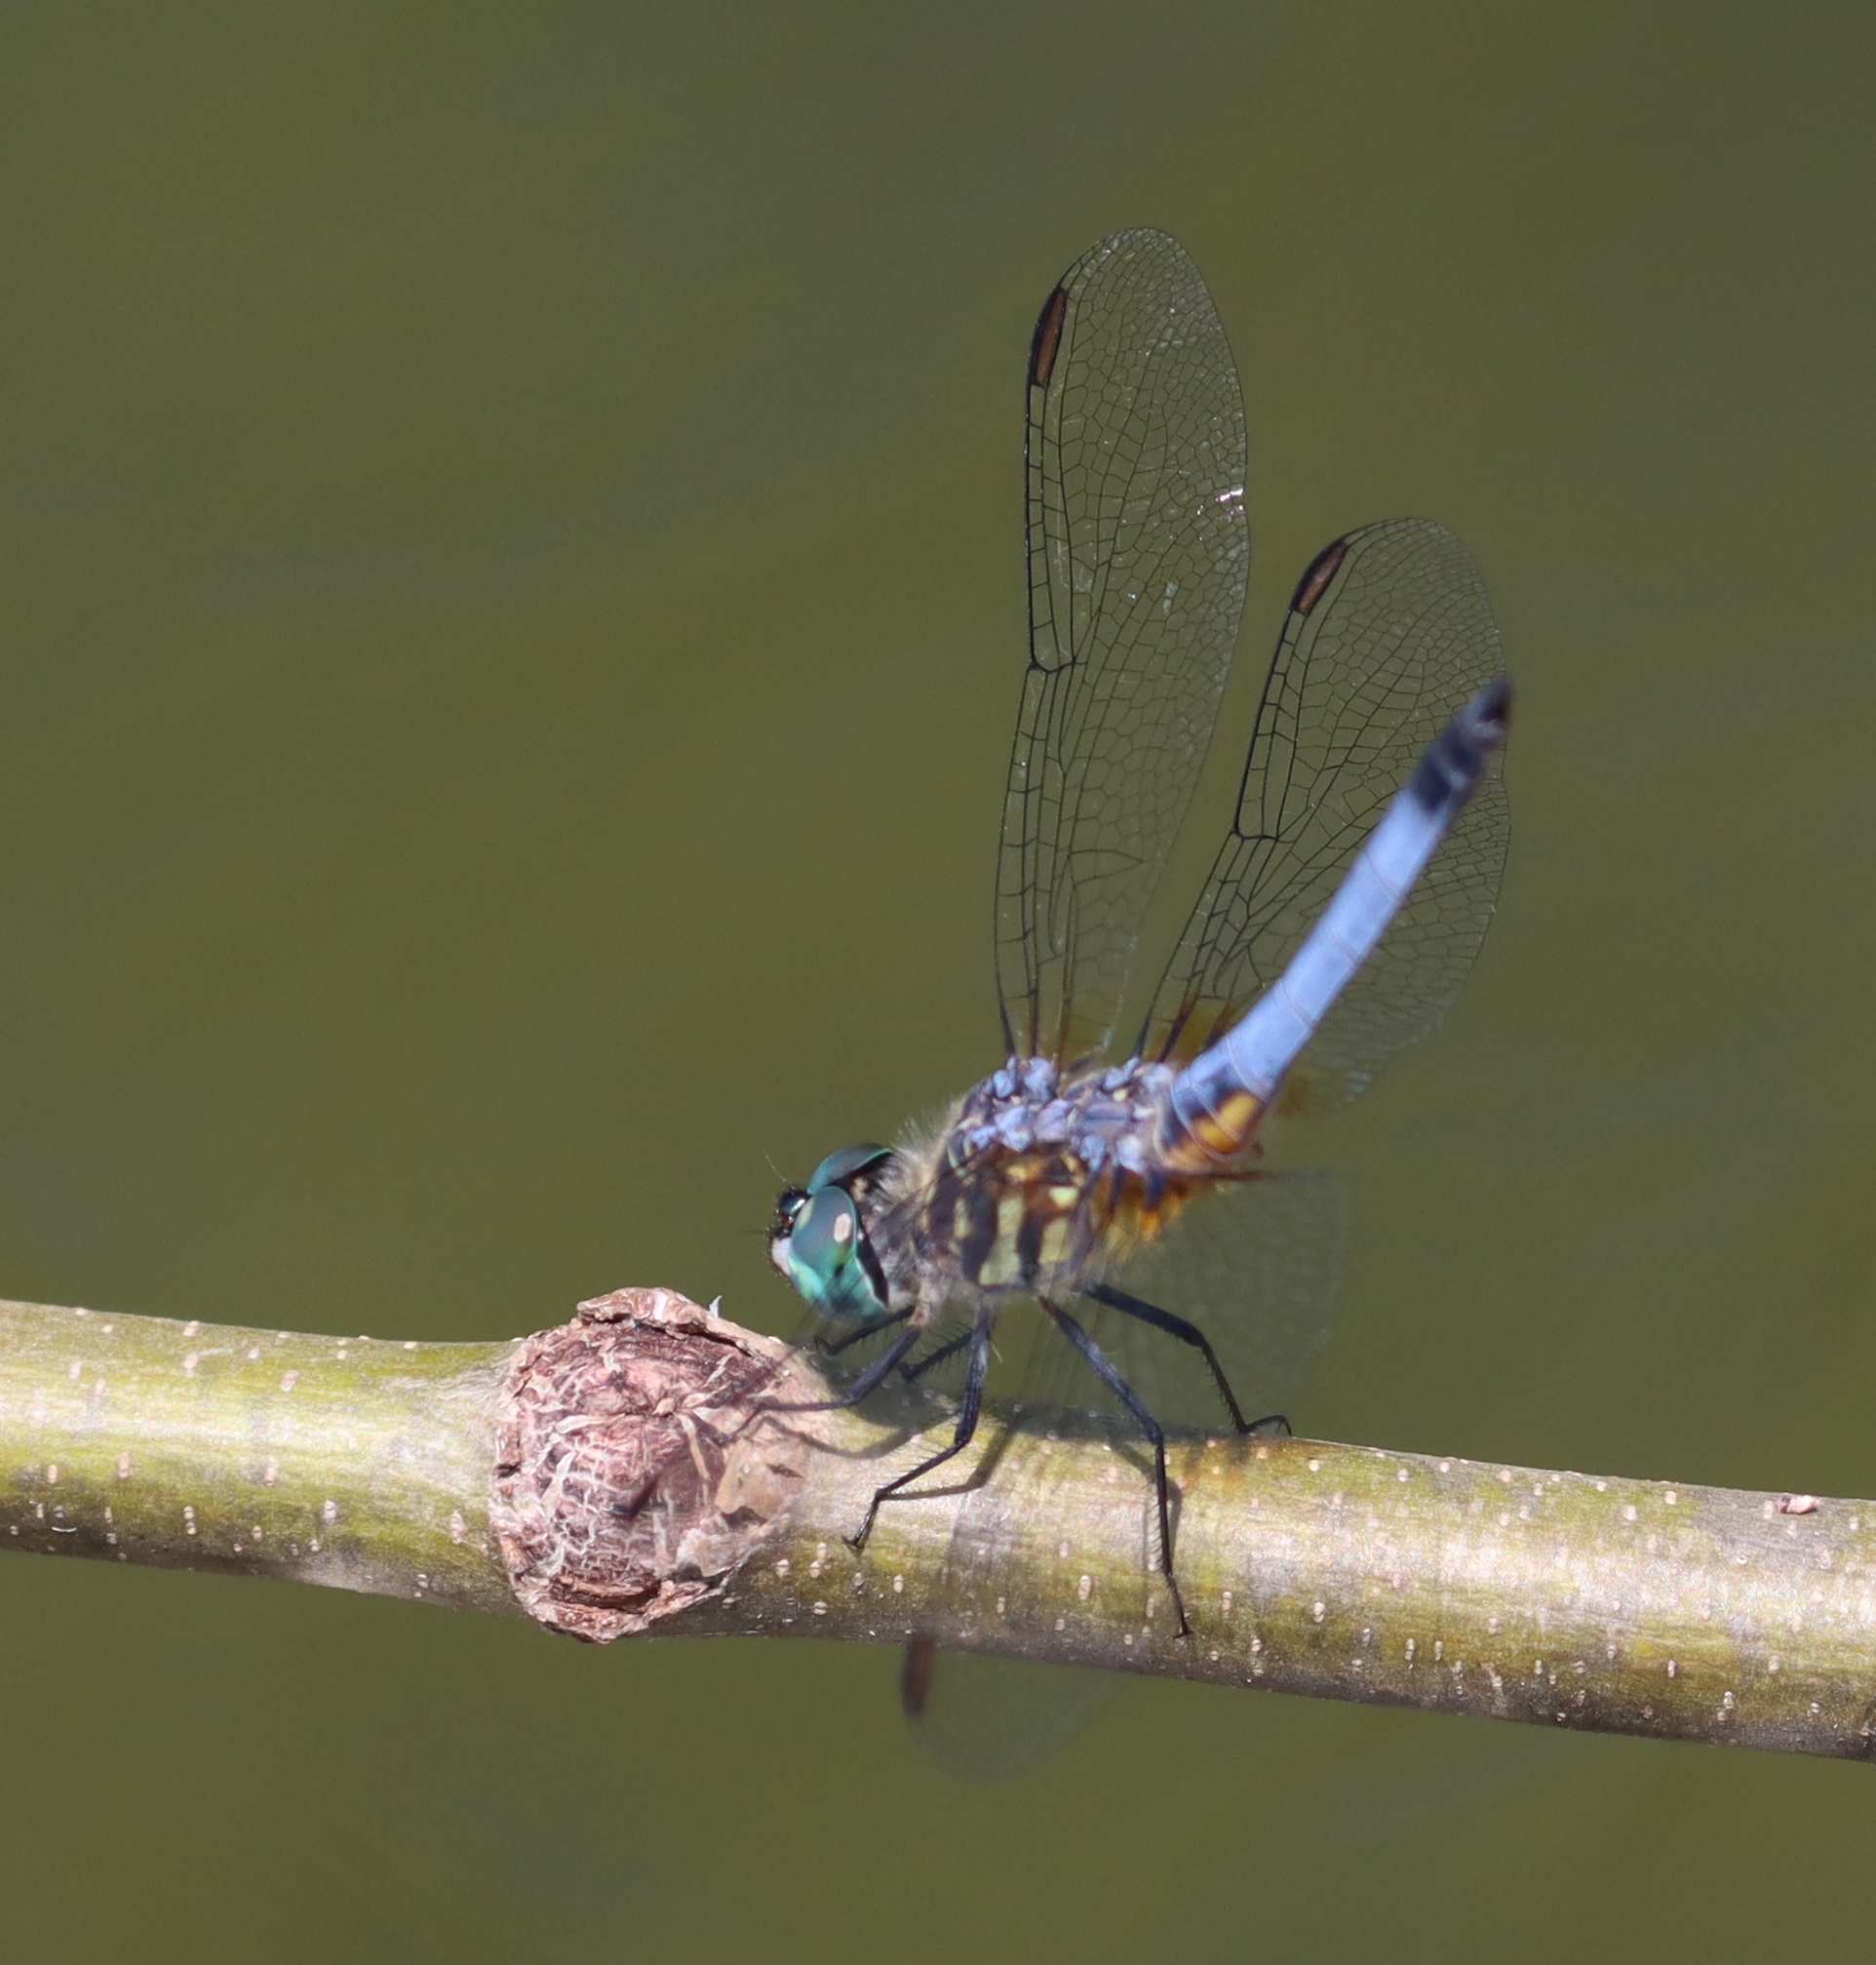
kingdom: Animalia
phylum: Arthropoda
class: Insecta
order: Odonata
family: Libellulidae
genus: Pachydiplax
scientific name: Pachydiplax longipennis
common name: Blue dasher
